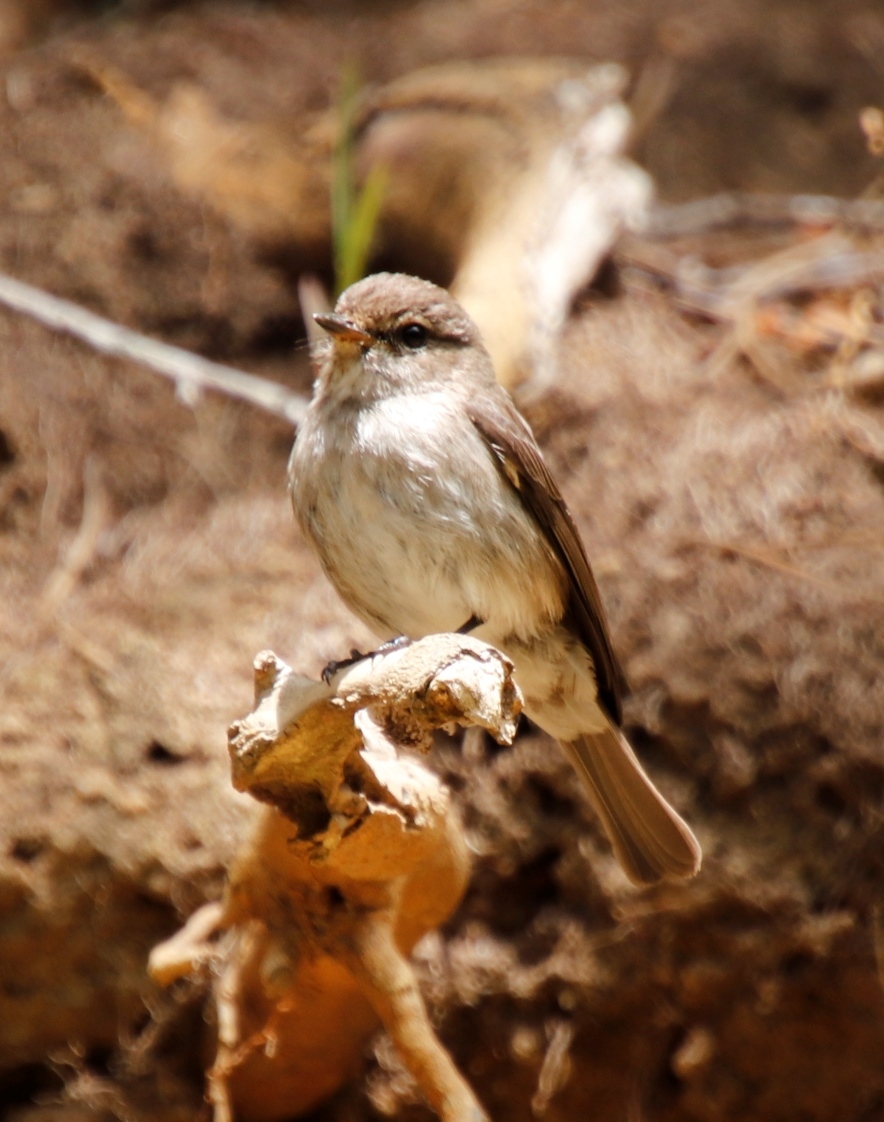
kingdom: Animalia
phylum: Chordata
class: Aves
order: Passeriformes
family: Muscicapidae
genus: Muscicapa
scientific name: Muscicapa adusta
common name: African dusky flycatcher
